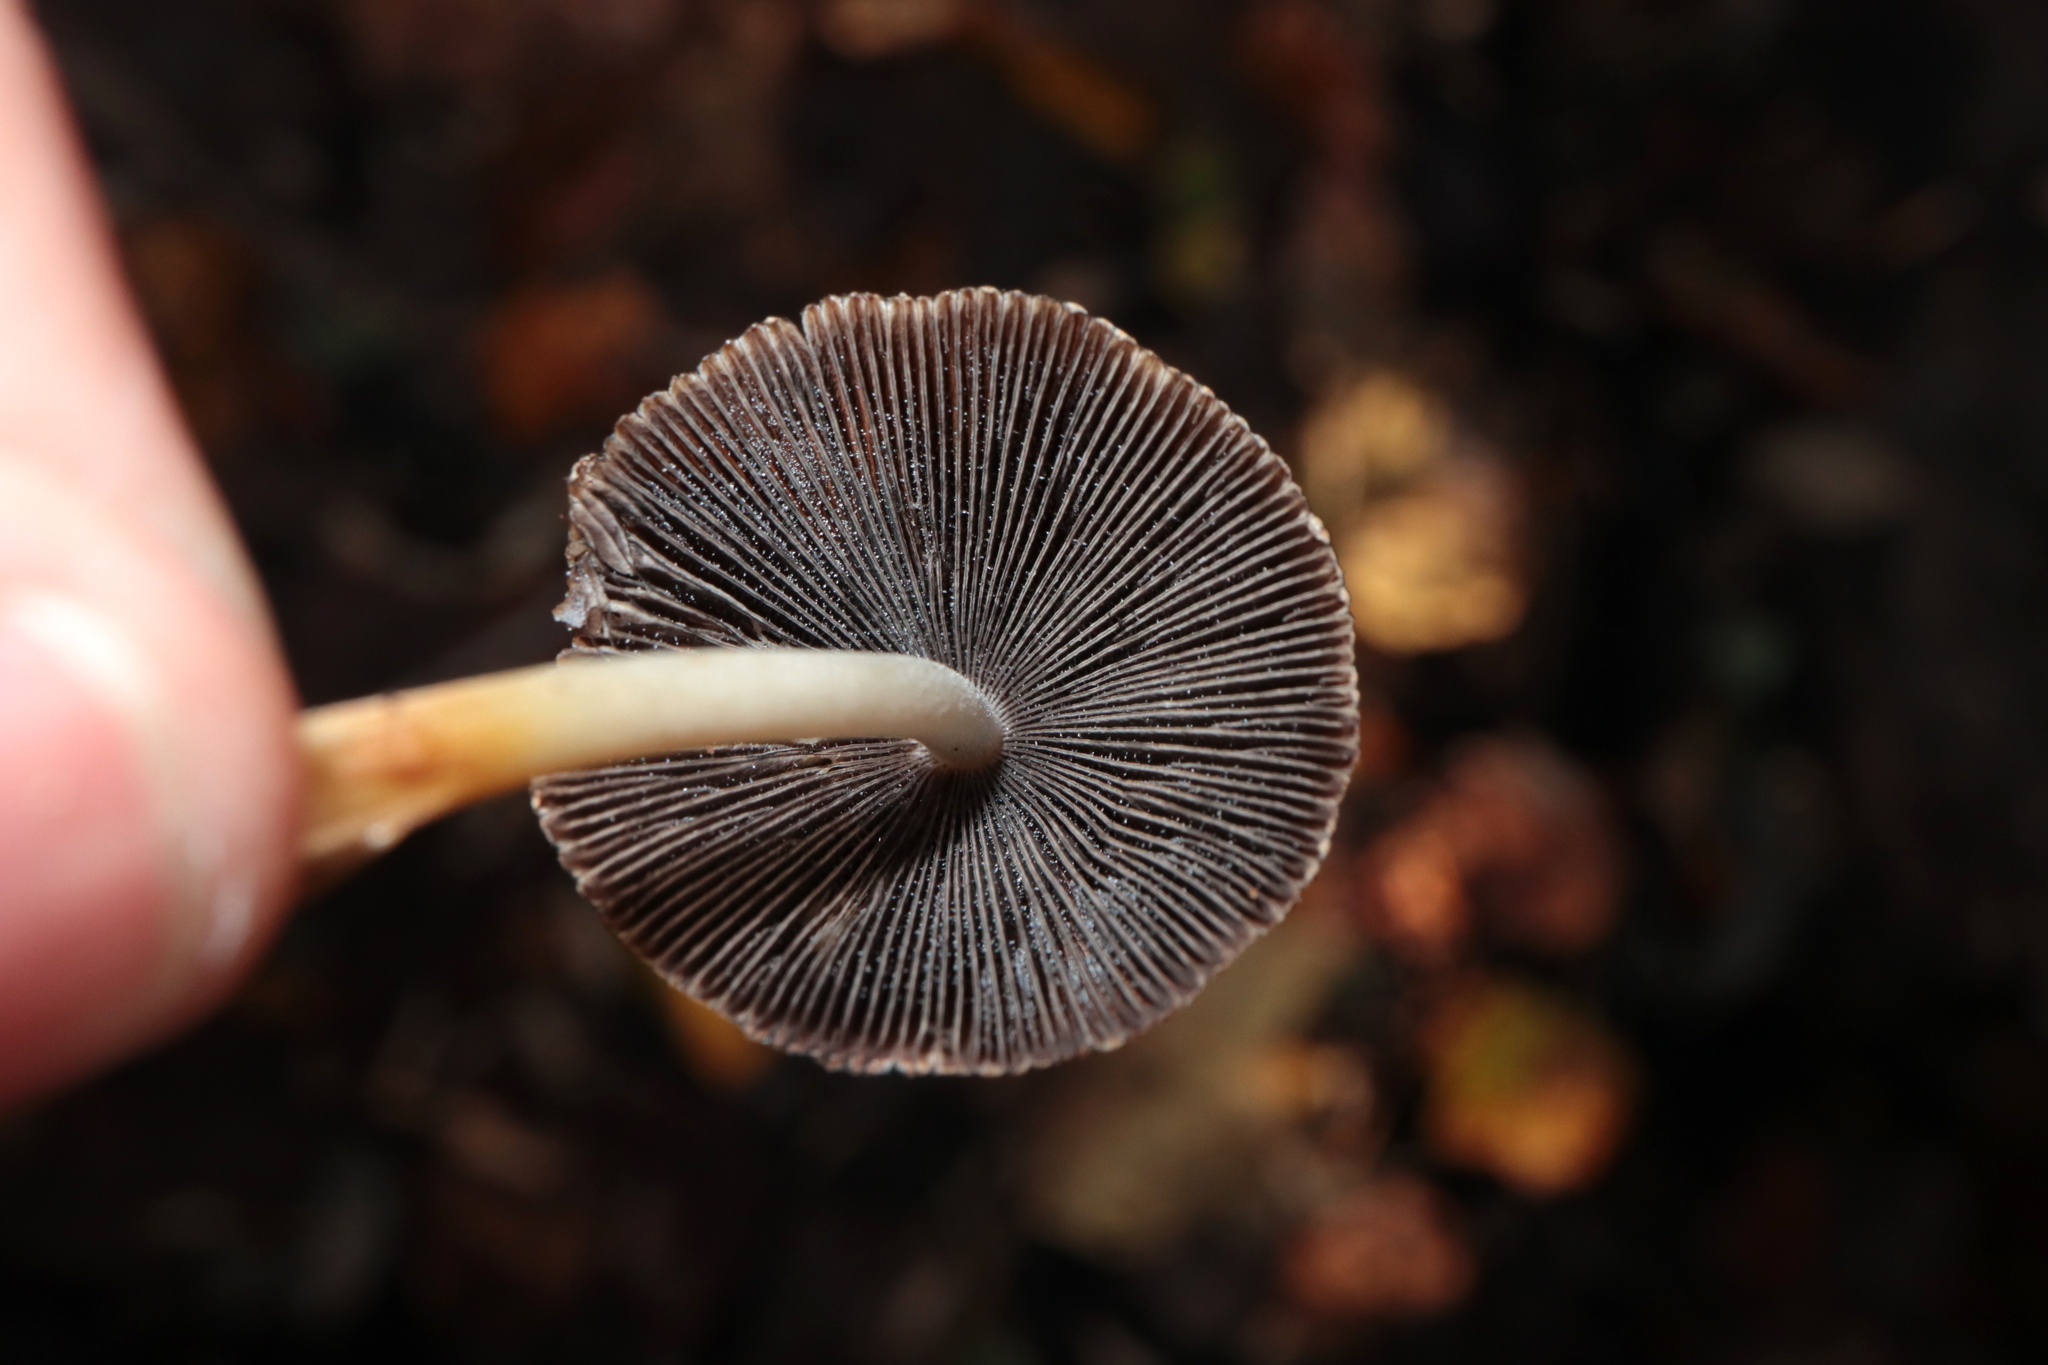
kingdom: Fungi
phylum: Basidiomycota
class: Agaricomycetes
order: Agaricales
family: Psathyrellaceae
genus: Coprinellus
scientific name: Coprinellus micaceus
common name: Glistening ink-cap
